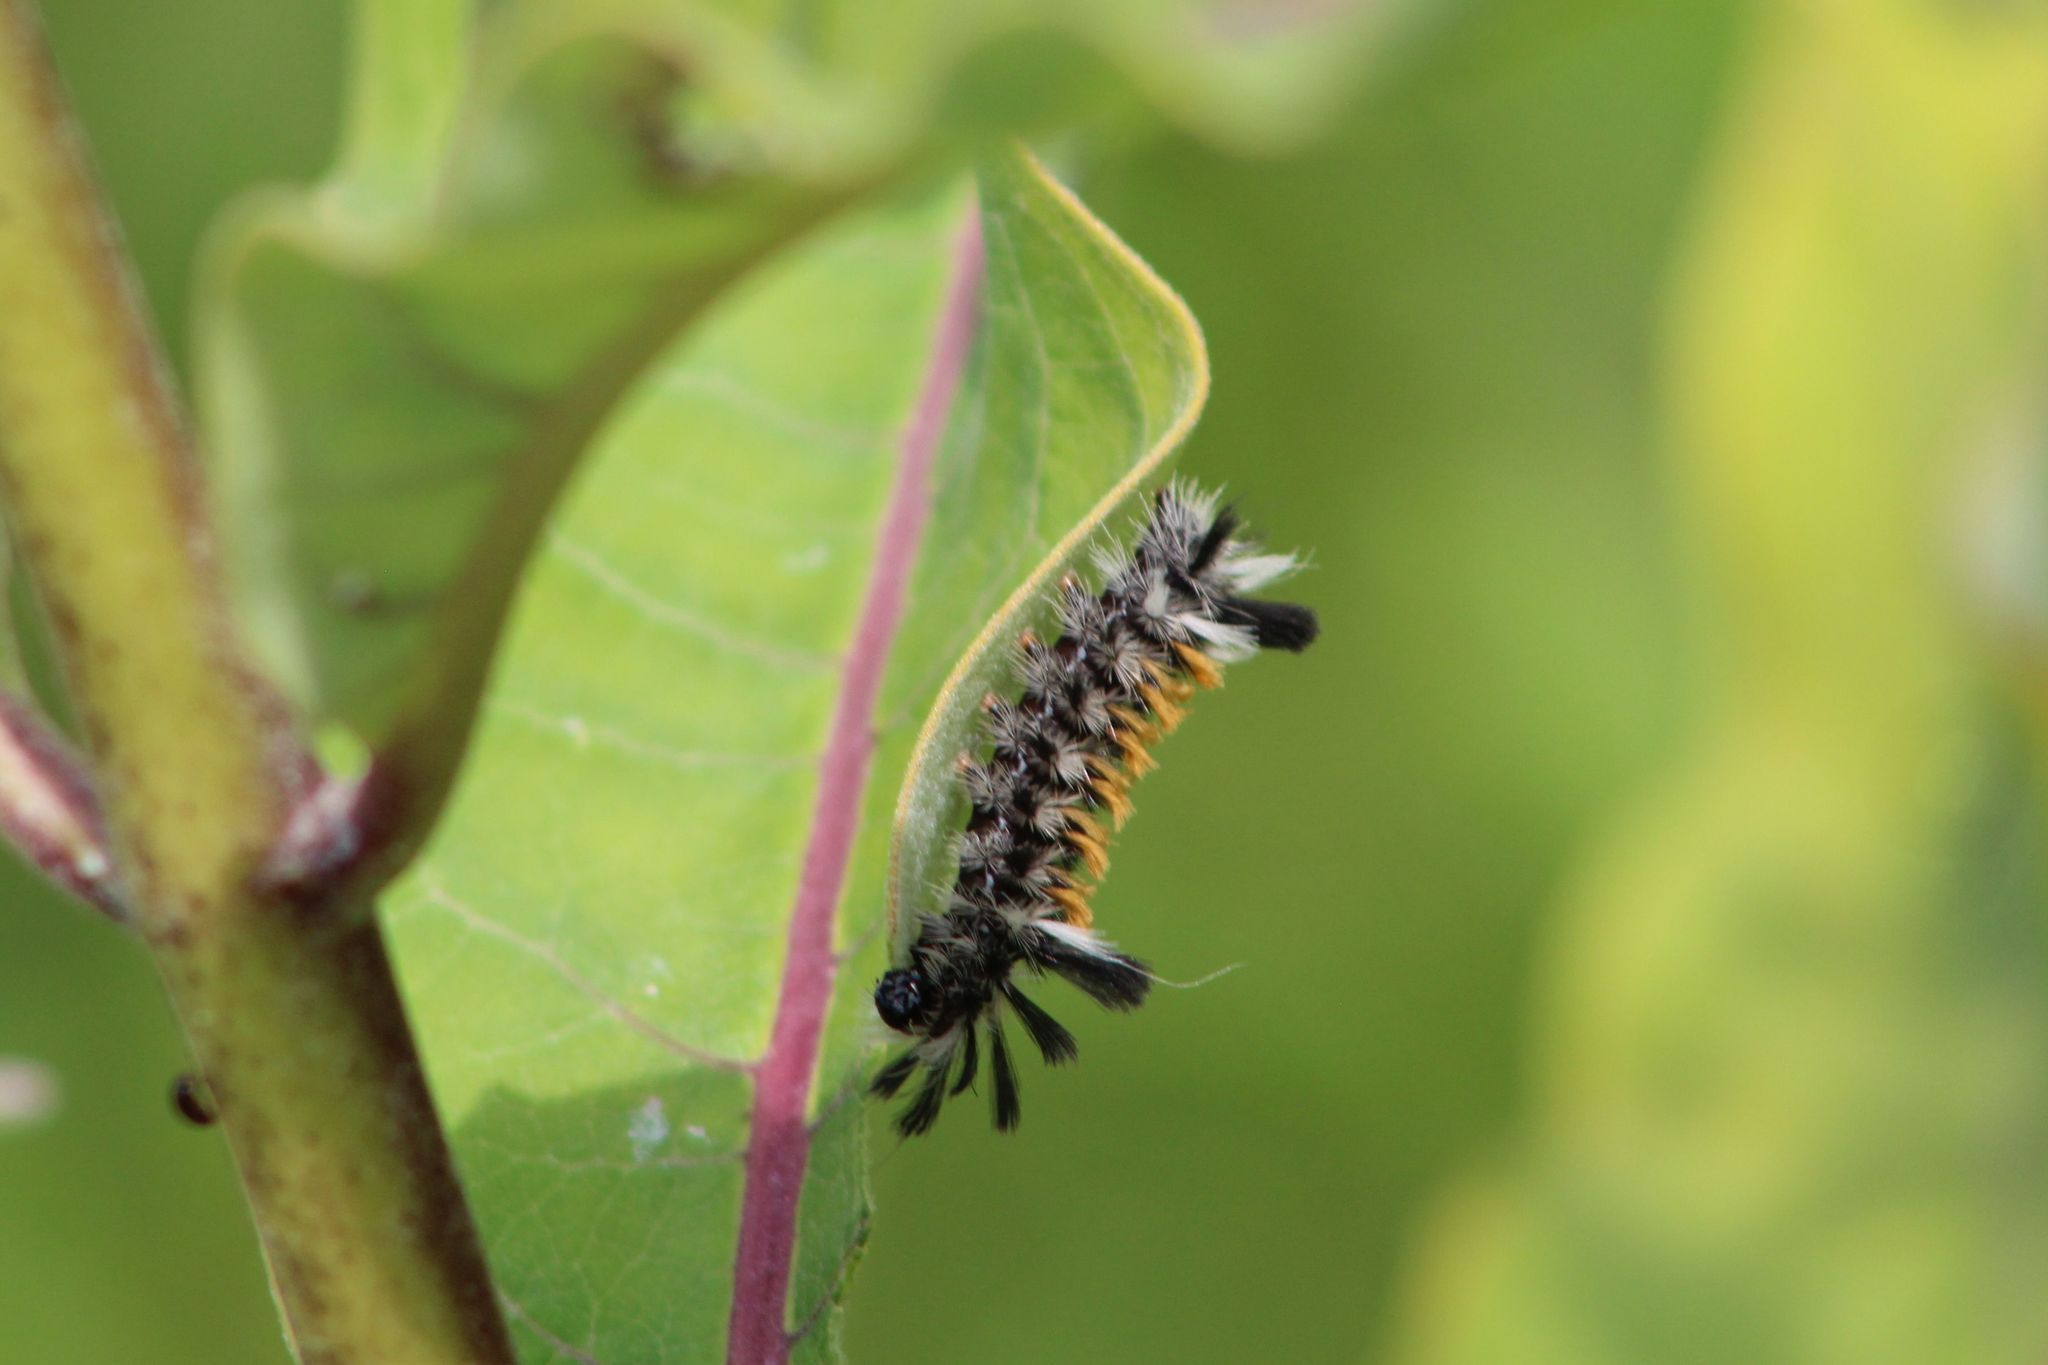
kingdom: Animalia
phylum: Arthropoda
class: Insecta
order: Lepidoptera
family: Erebidae
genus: Euchaetes
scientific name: Euchaetes egle
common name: Milkweed tussock moth
